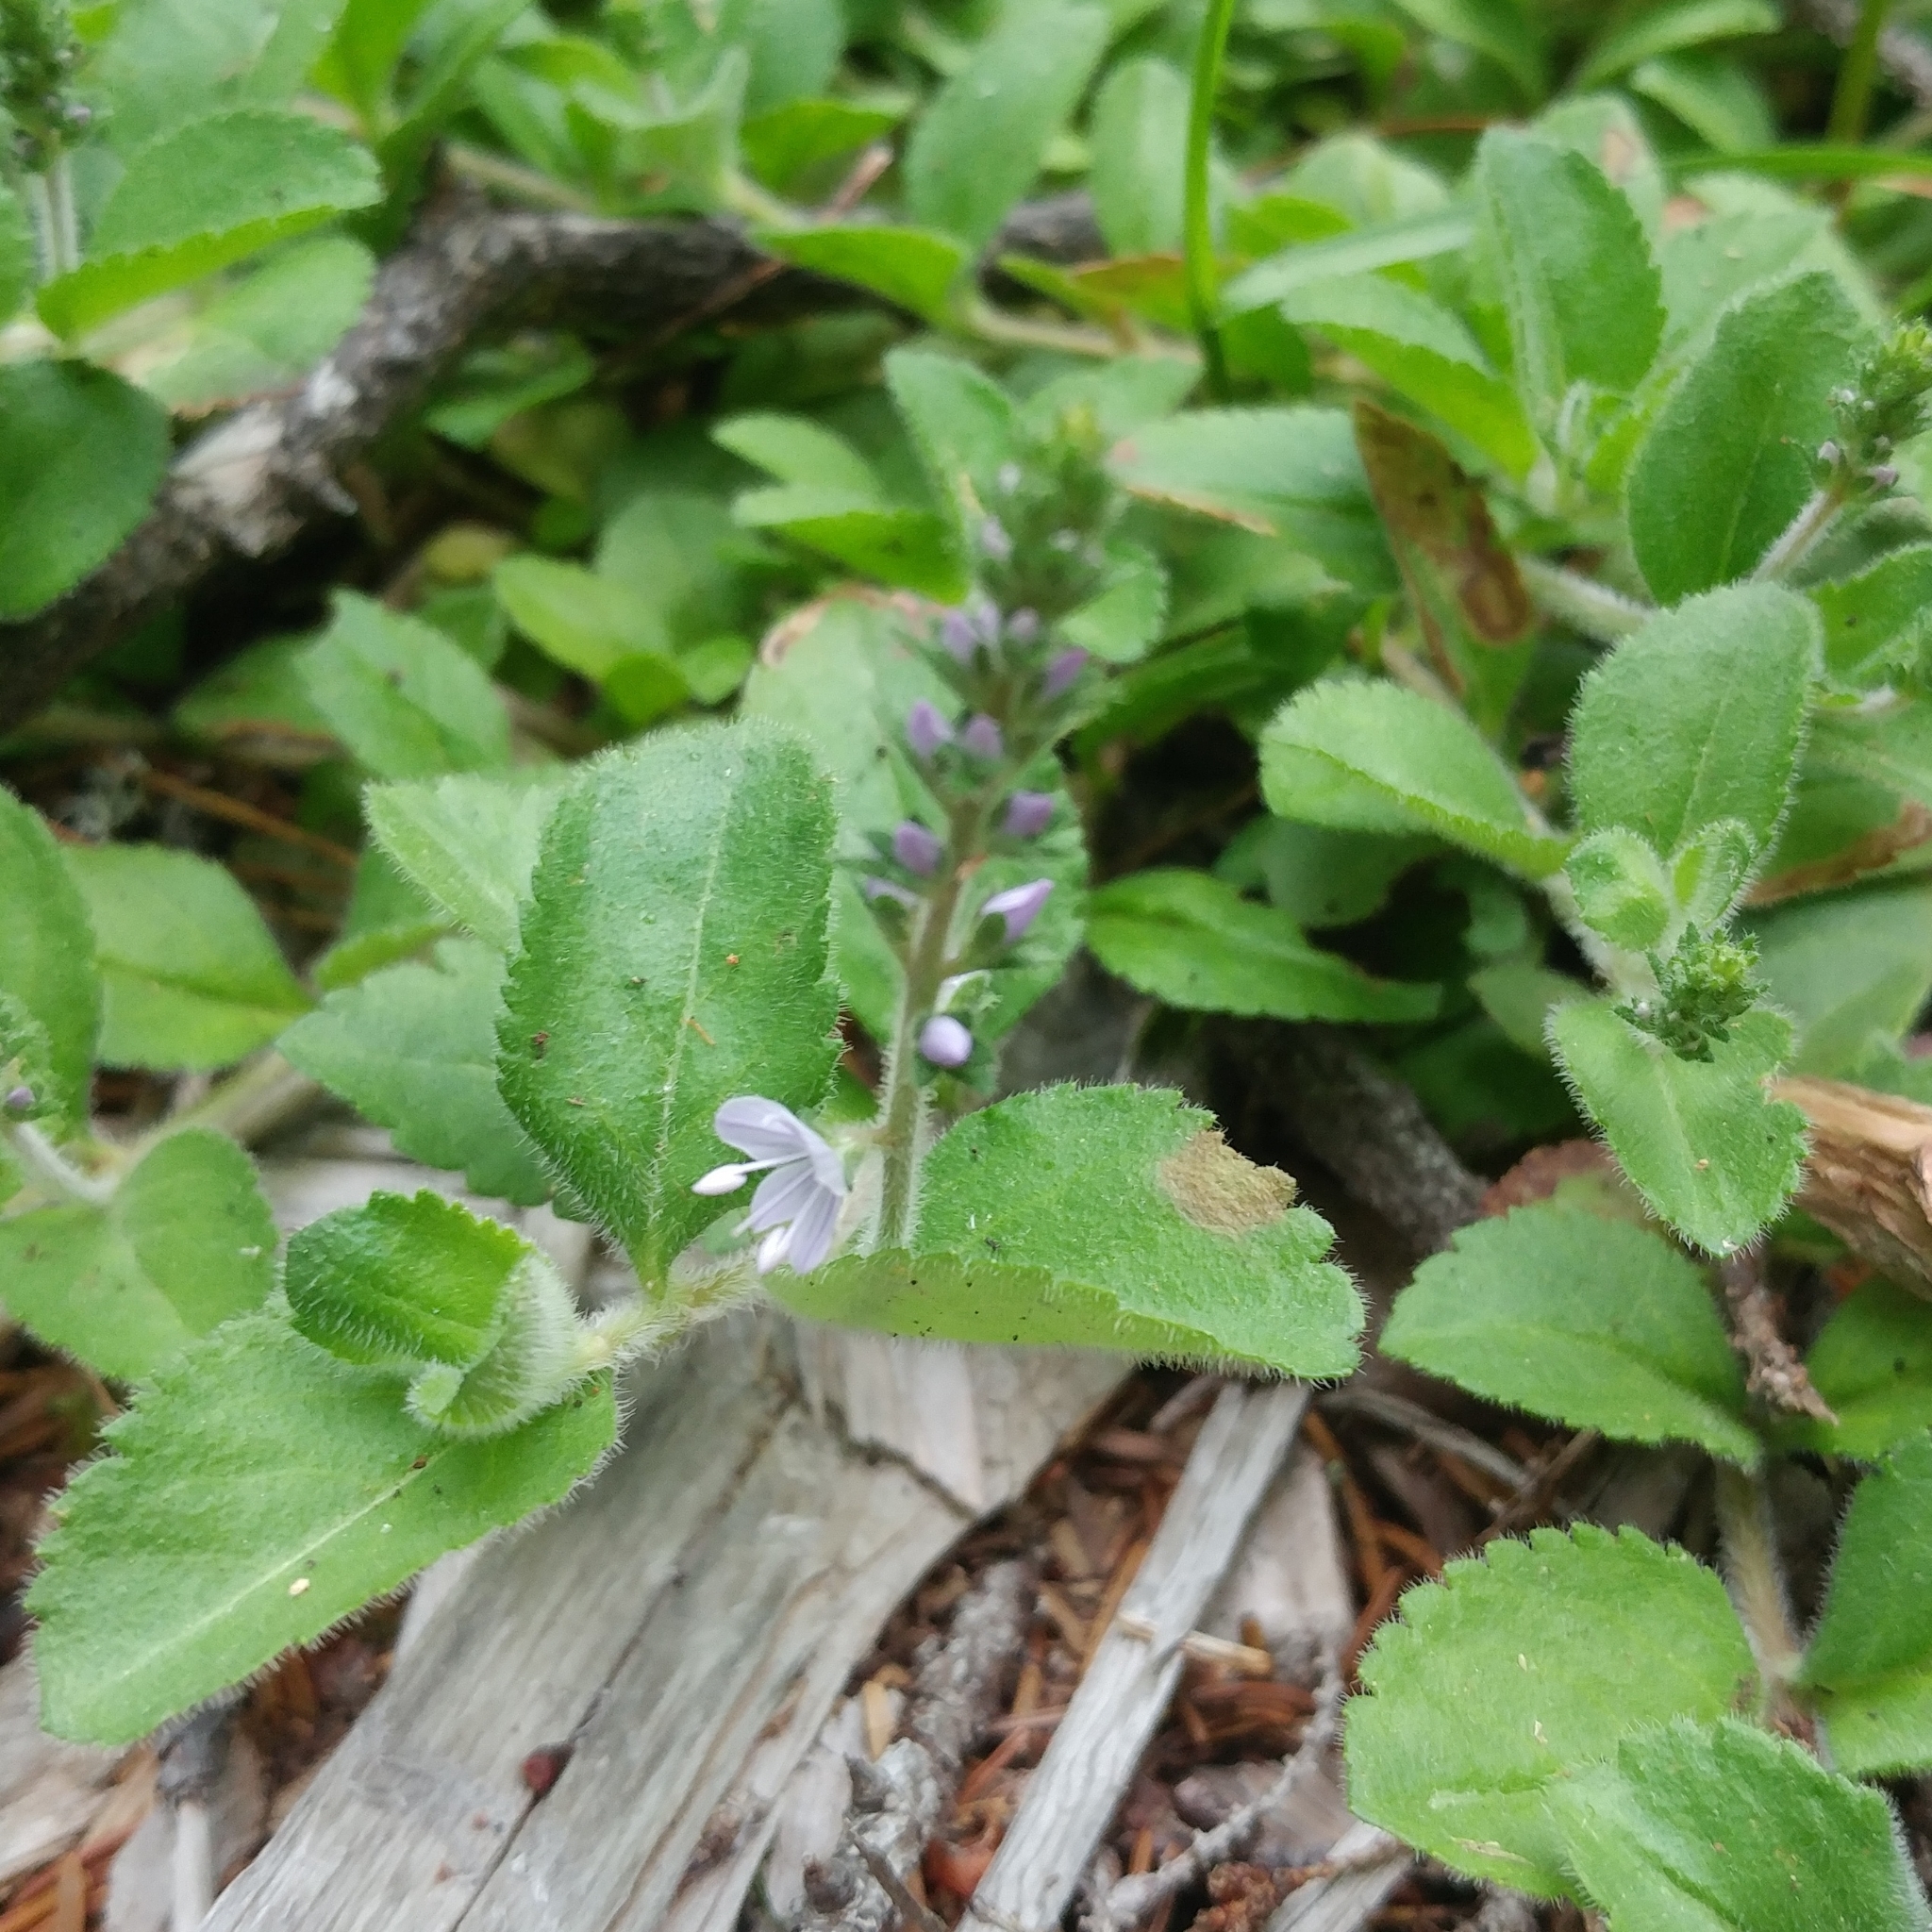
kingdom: Plantae
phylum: Tracheophyta
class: Magnoliopsida
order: Lamiales
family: Plantaginaceae
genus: Veronica
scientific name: Veronica officinalis
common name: Common speedwell
